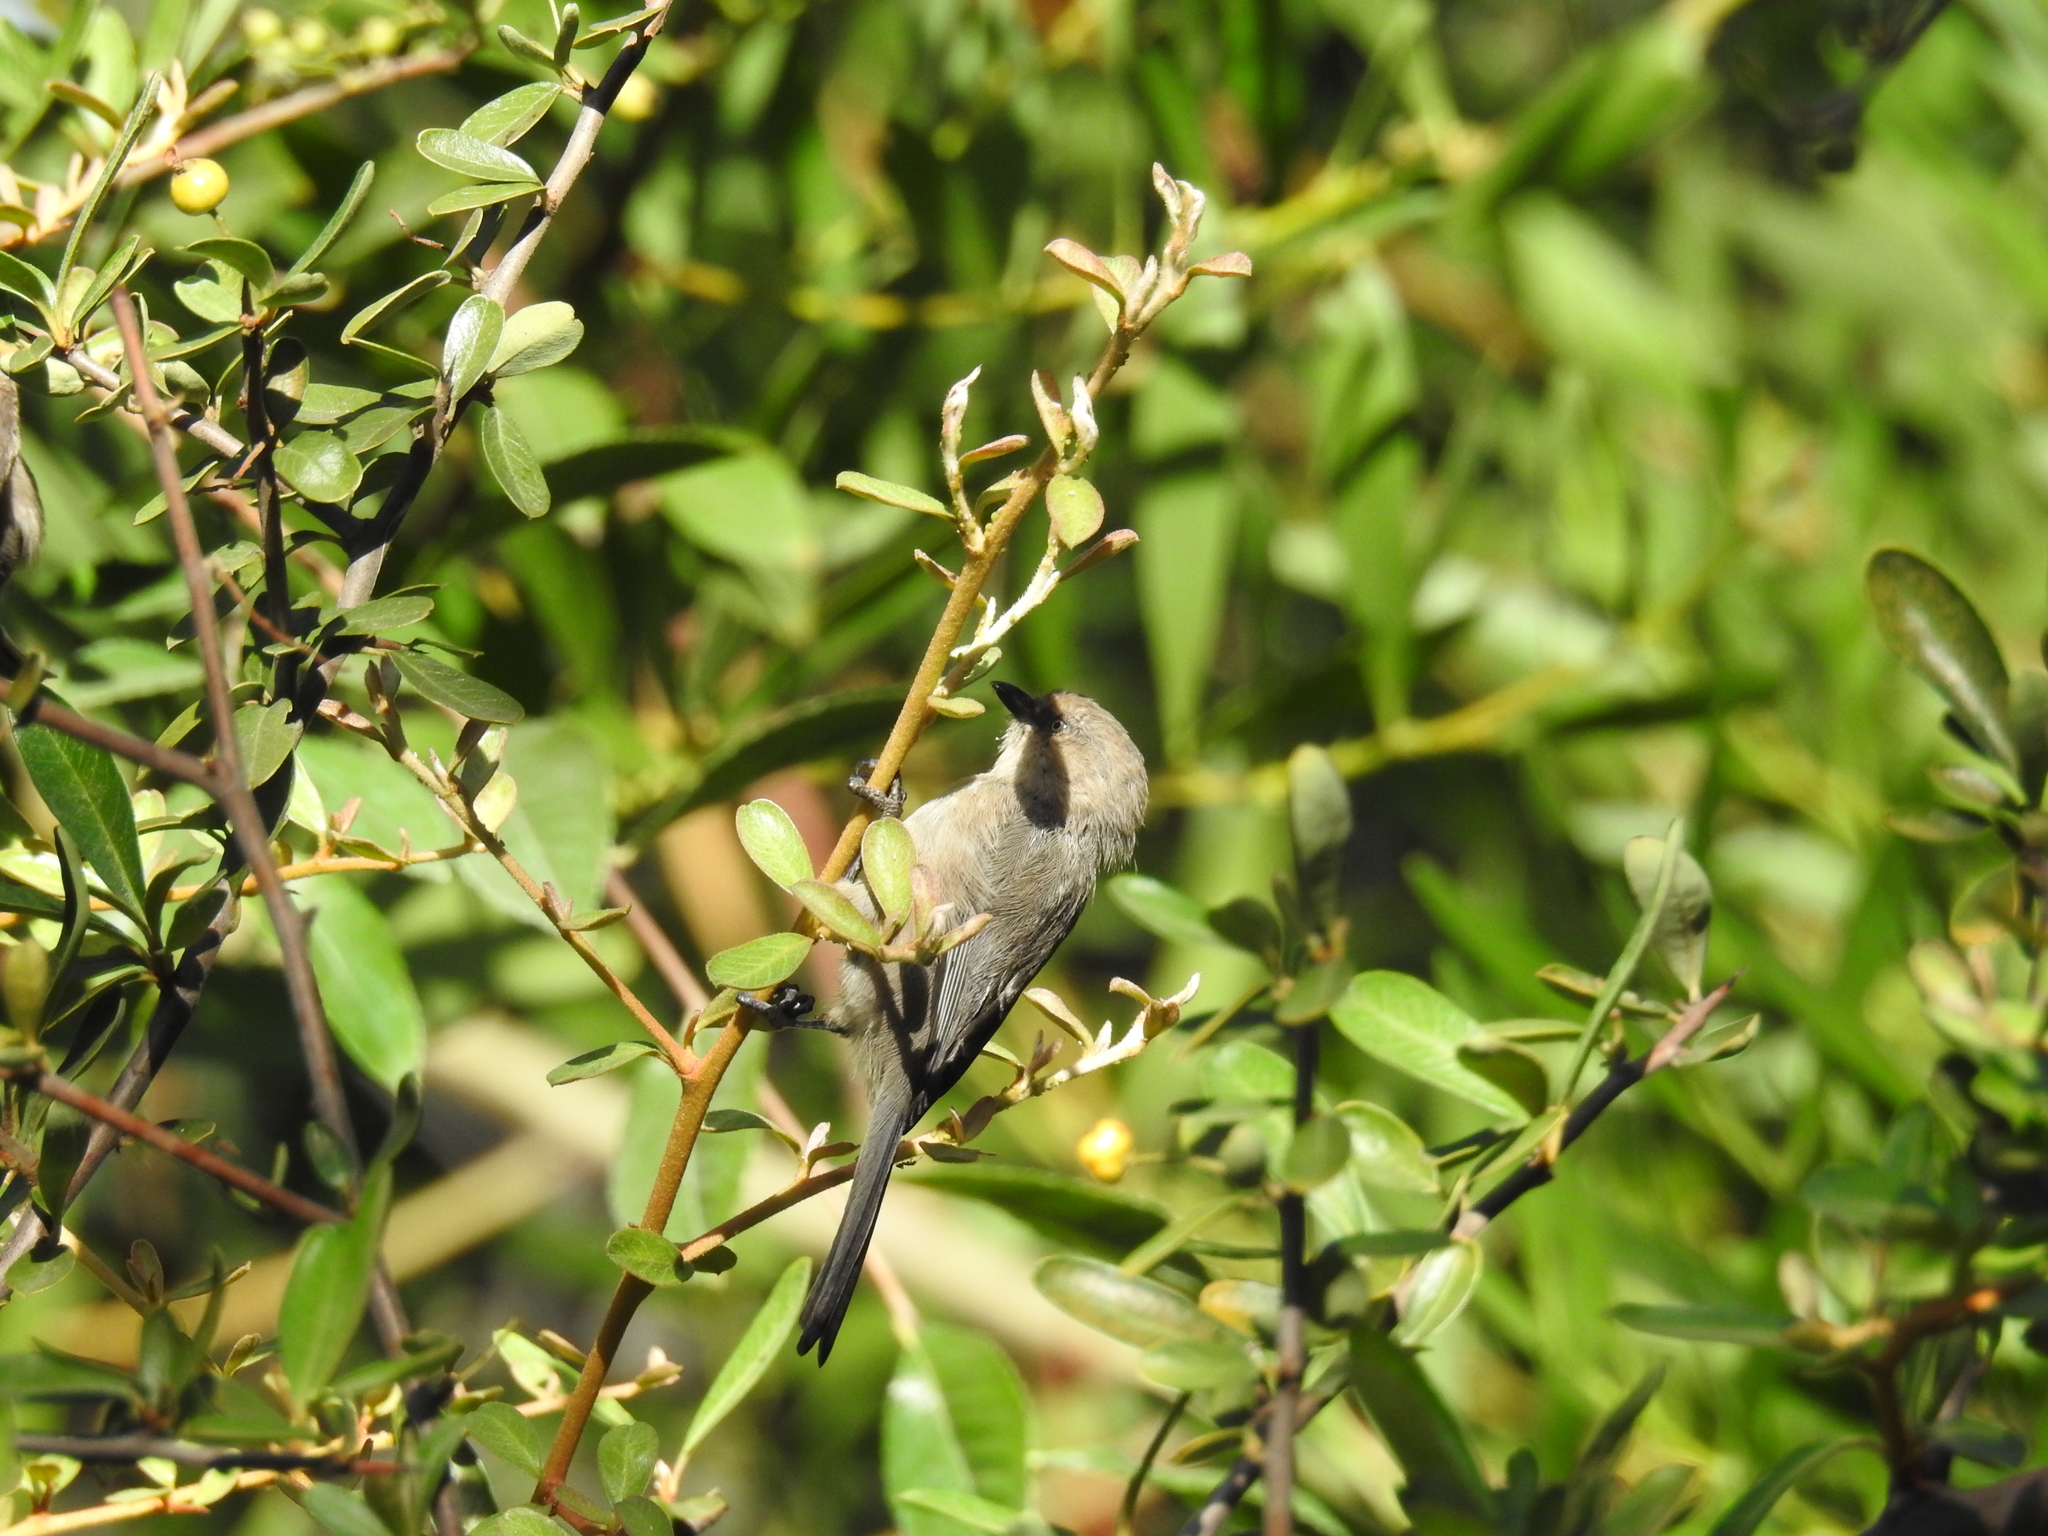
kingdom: Animalia
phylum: Chordata
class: Aves
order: Passeriformes
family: Aegithalidae
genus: Psaltriparus
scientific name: Psaltriparus minimus
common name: American bushtit
